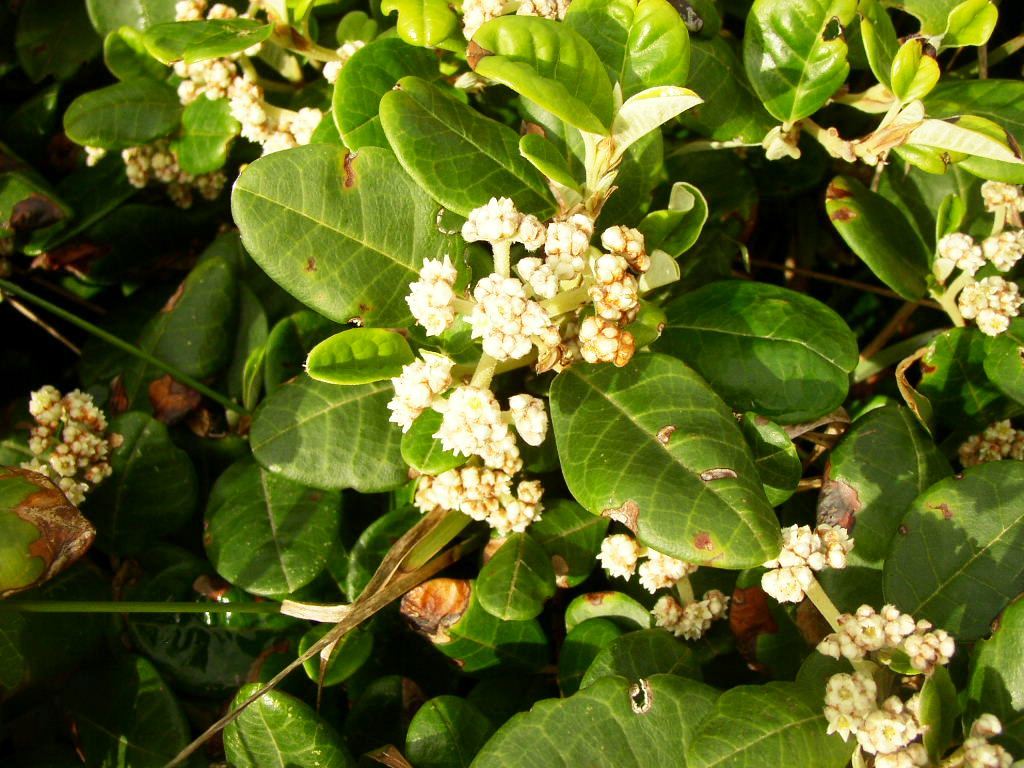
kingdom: Plantae
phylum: Tracheophyta
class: Magnoliopsida
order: Rosales
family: Rhamnaceae
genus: Spyridium
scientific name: Spyridium globulosum
